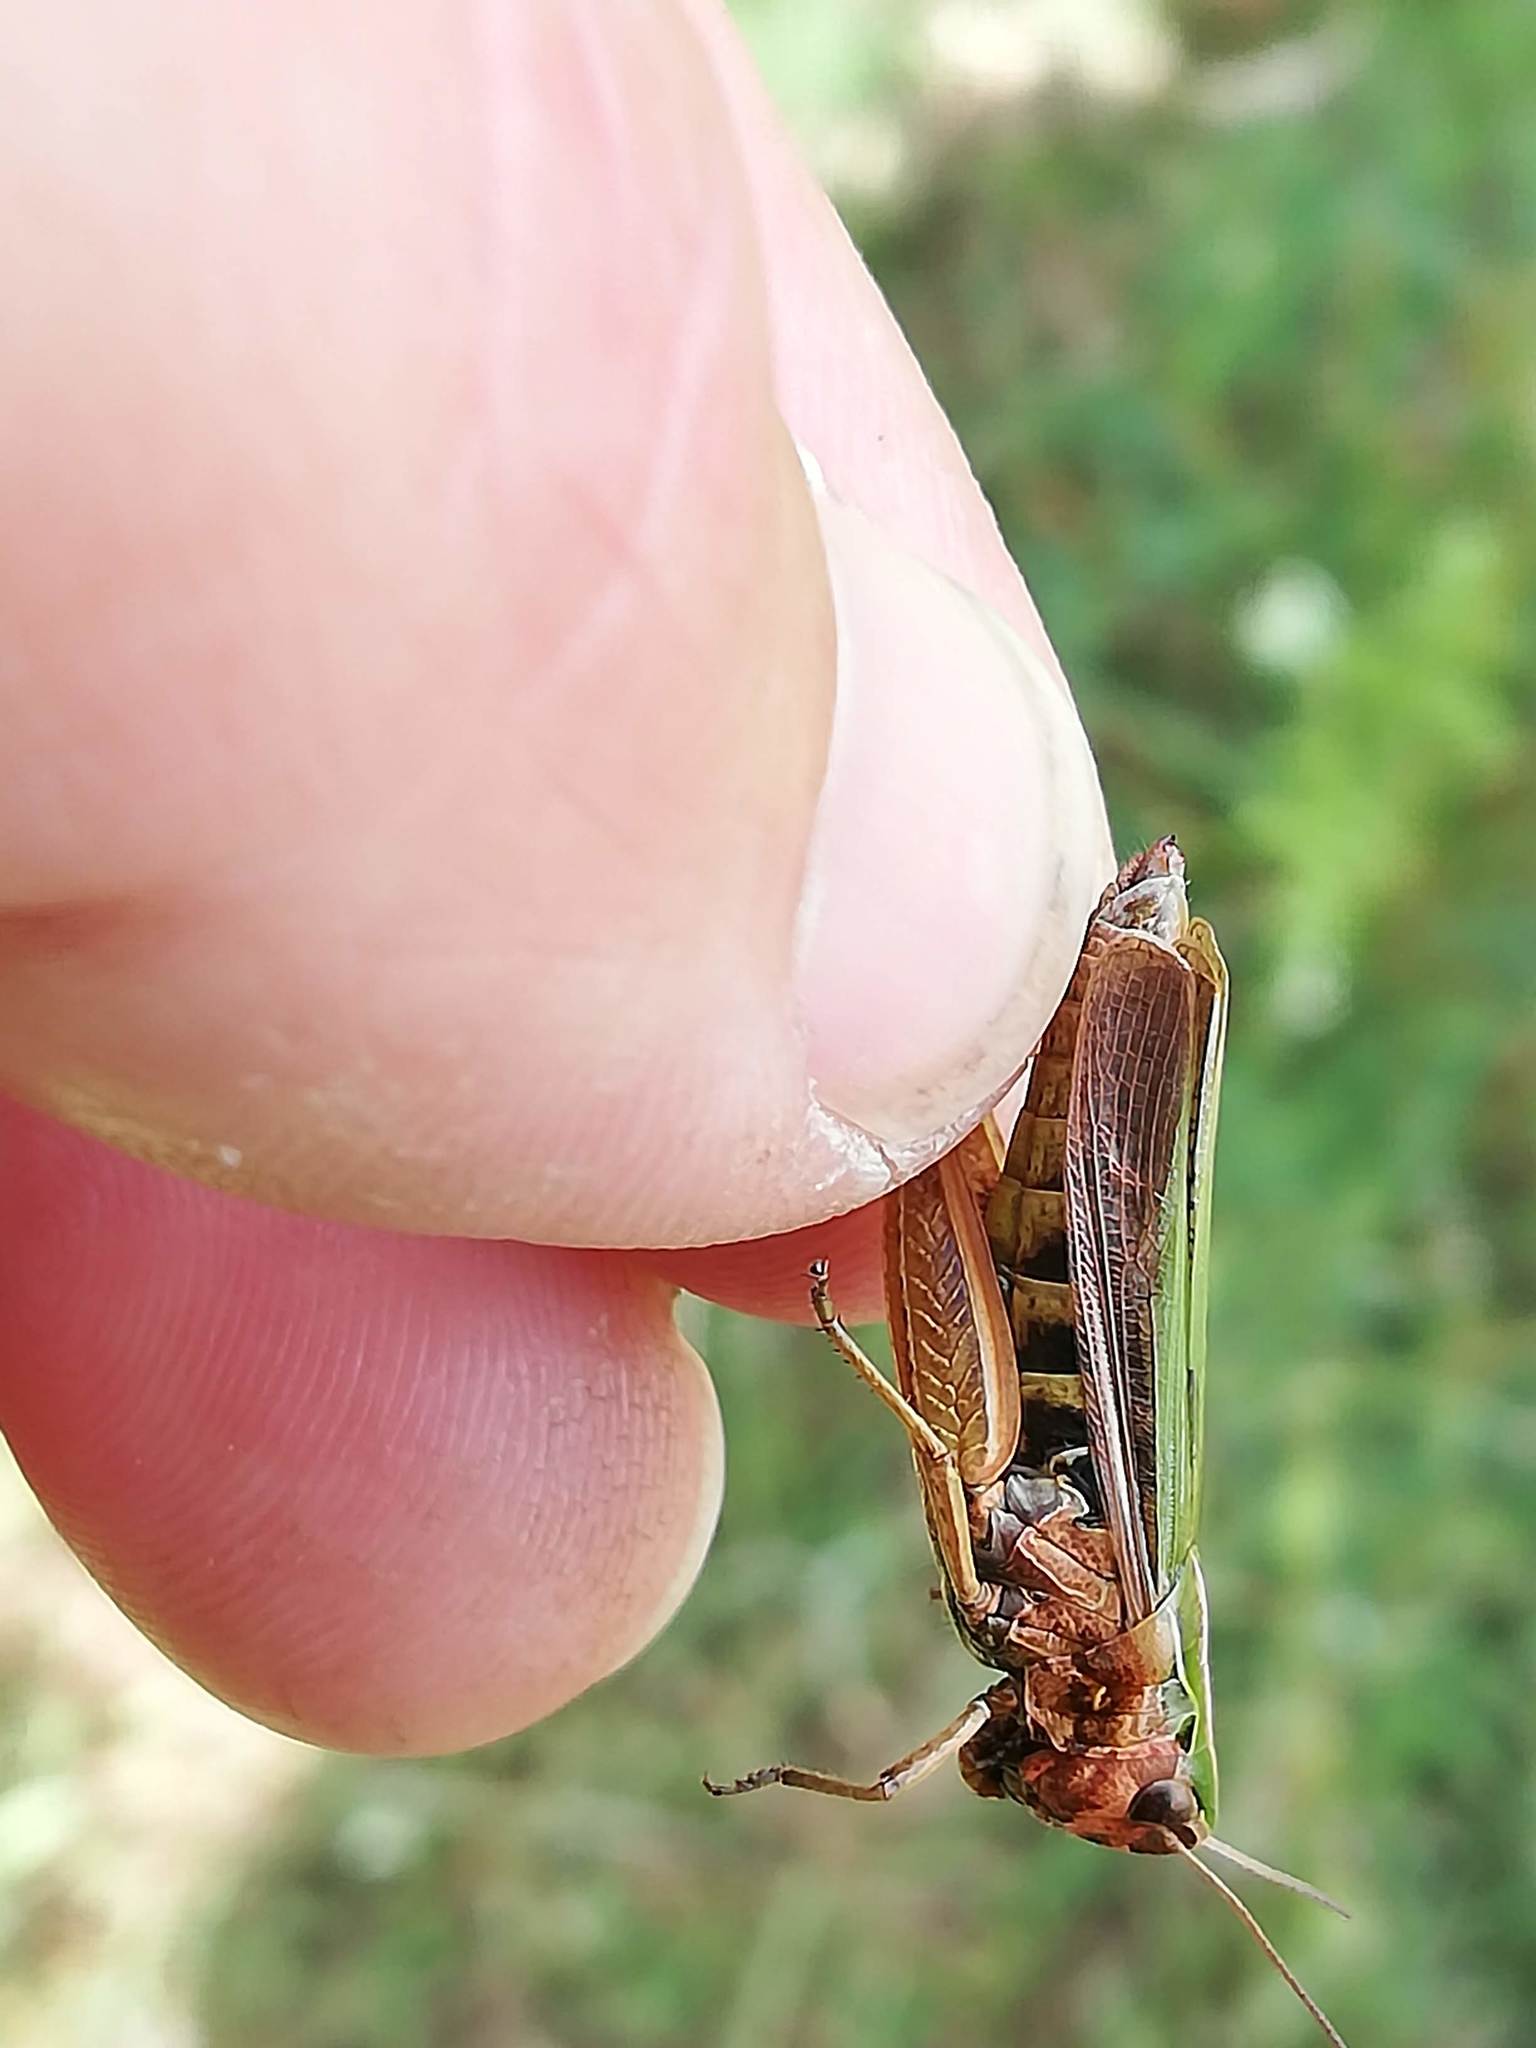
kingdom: Animalia
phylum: Arthropoda
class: Insecta
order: Orthoptera
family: Acrididae
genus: Omocestus
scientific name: Omocestus viridulus
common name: Common green grasshopper
